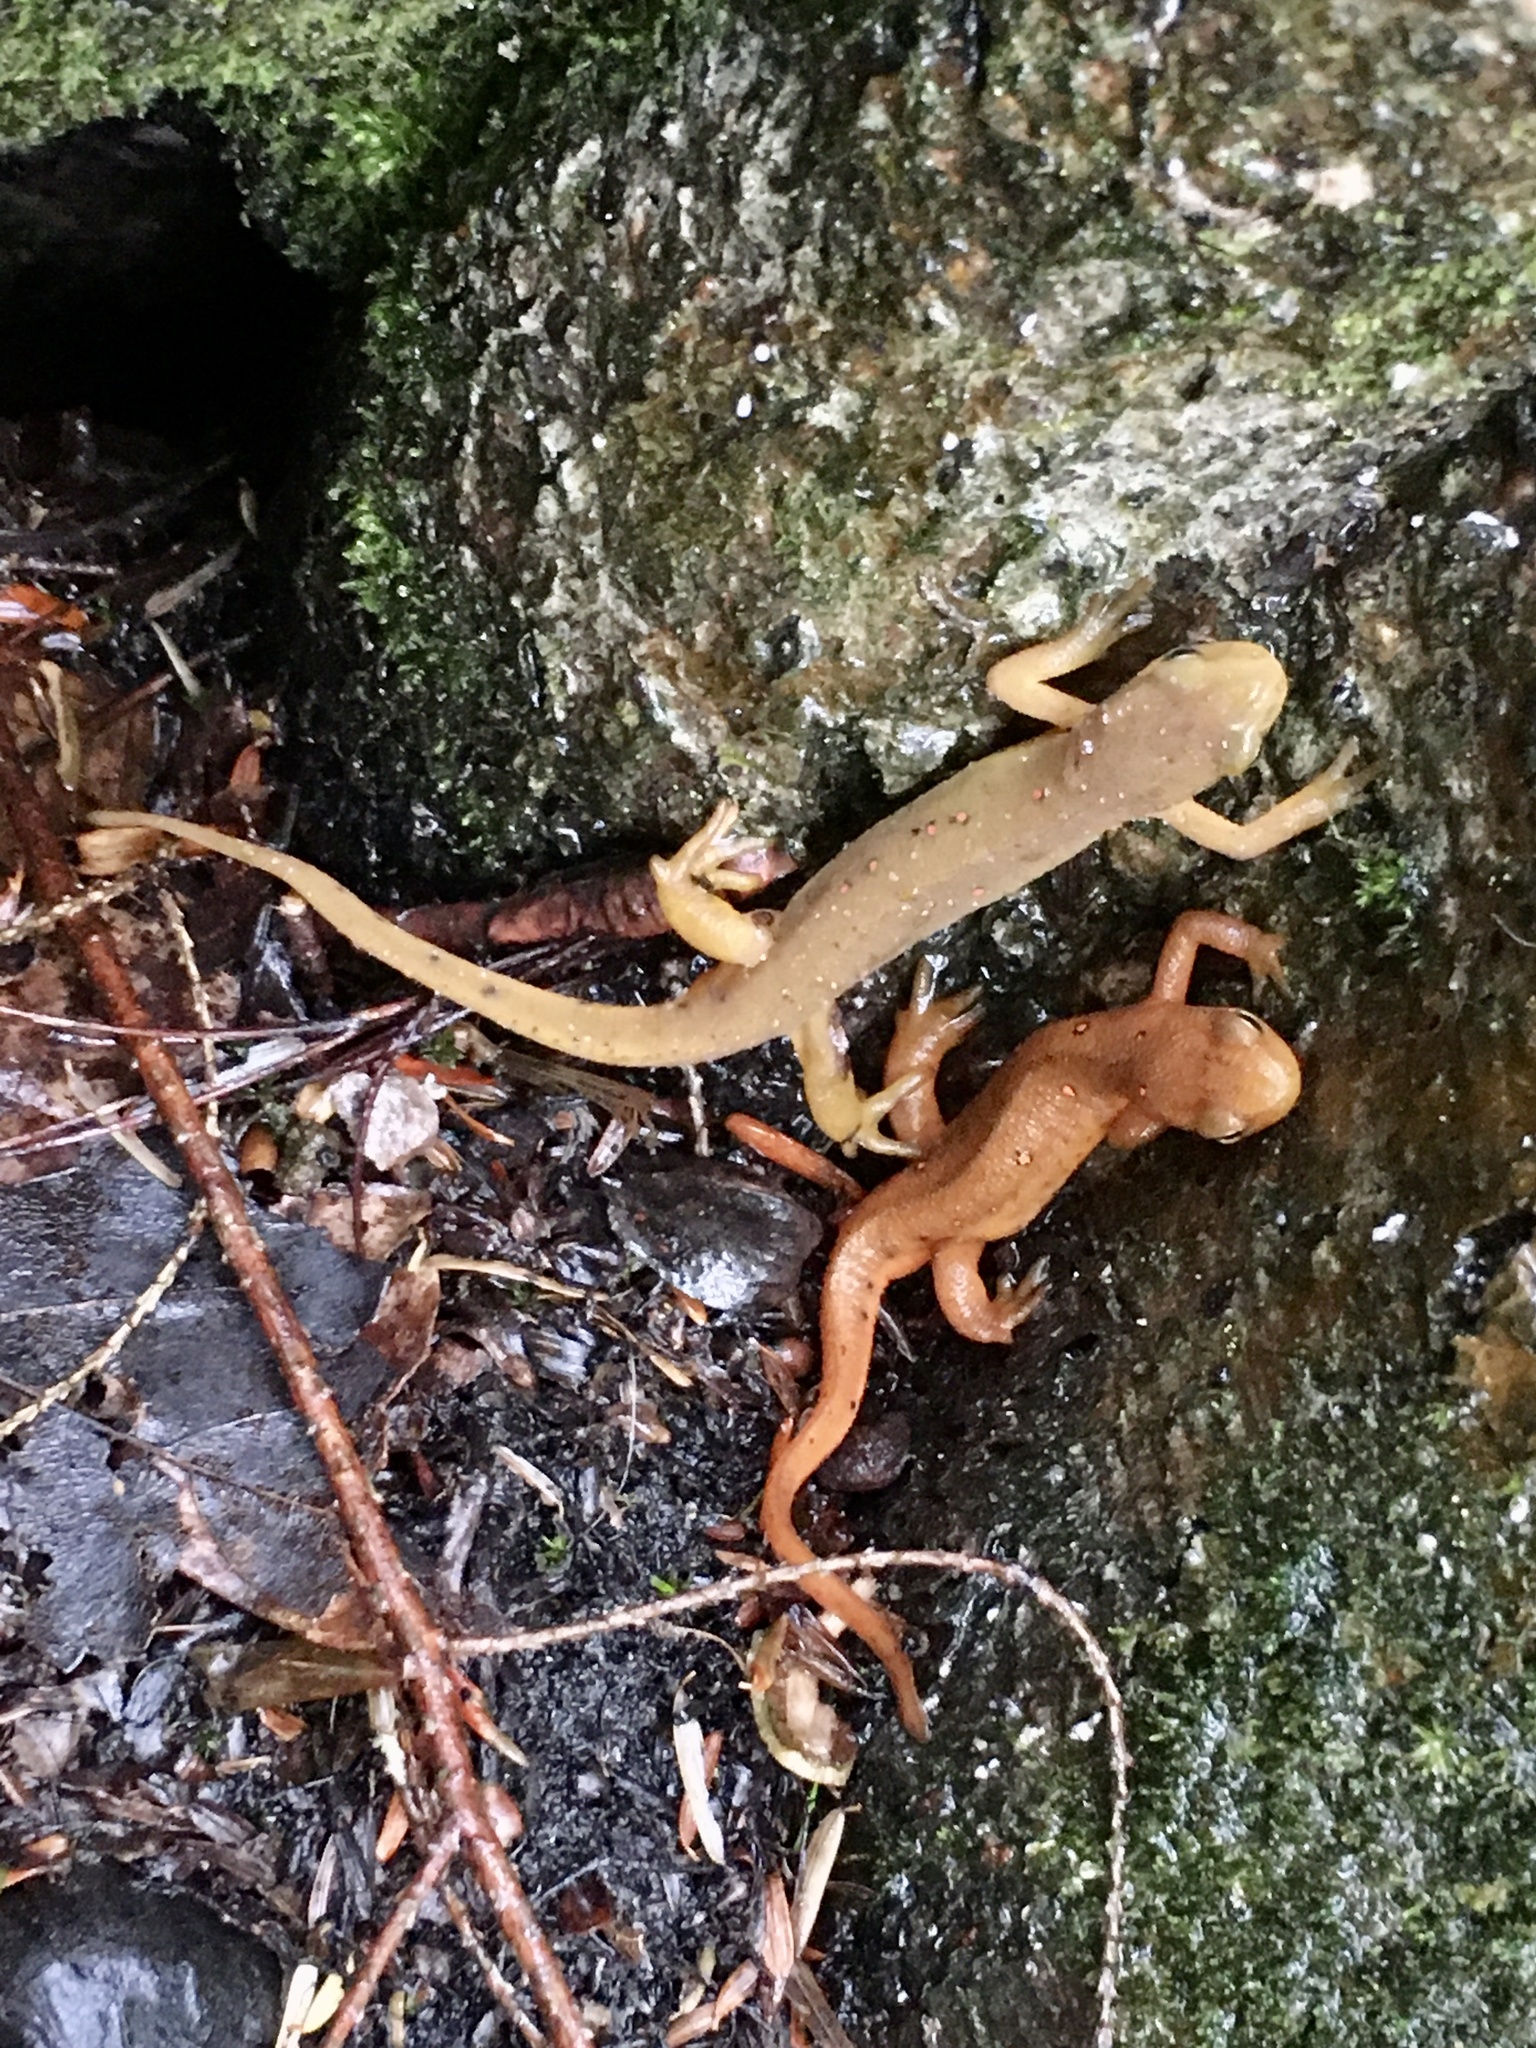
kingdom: Animalia
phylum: Chordata
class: Amphibia
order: Caudata
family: Salamandridae
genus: Notophthalmus
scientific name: Notophthalmus viridescens
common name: Eastern newt
